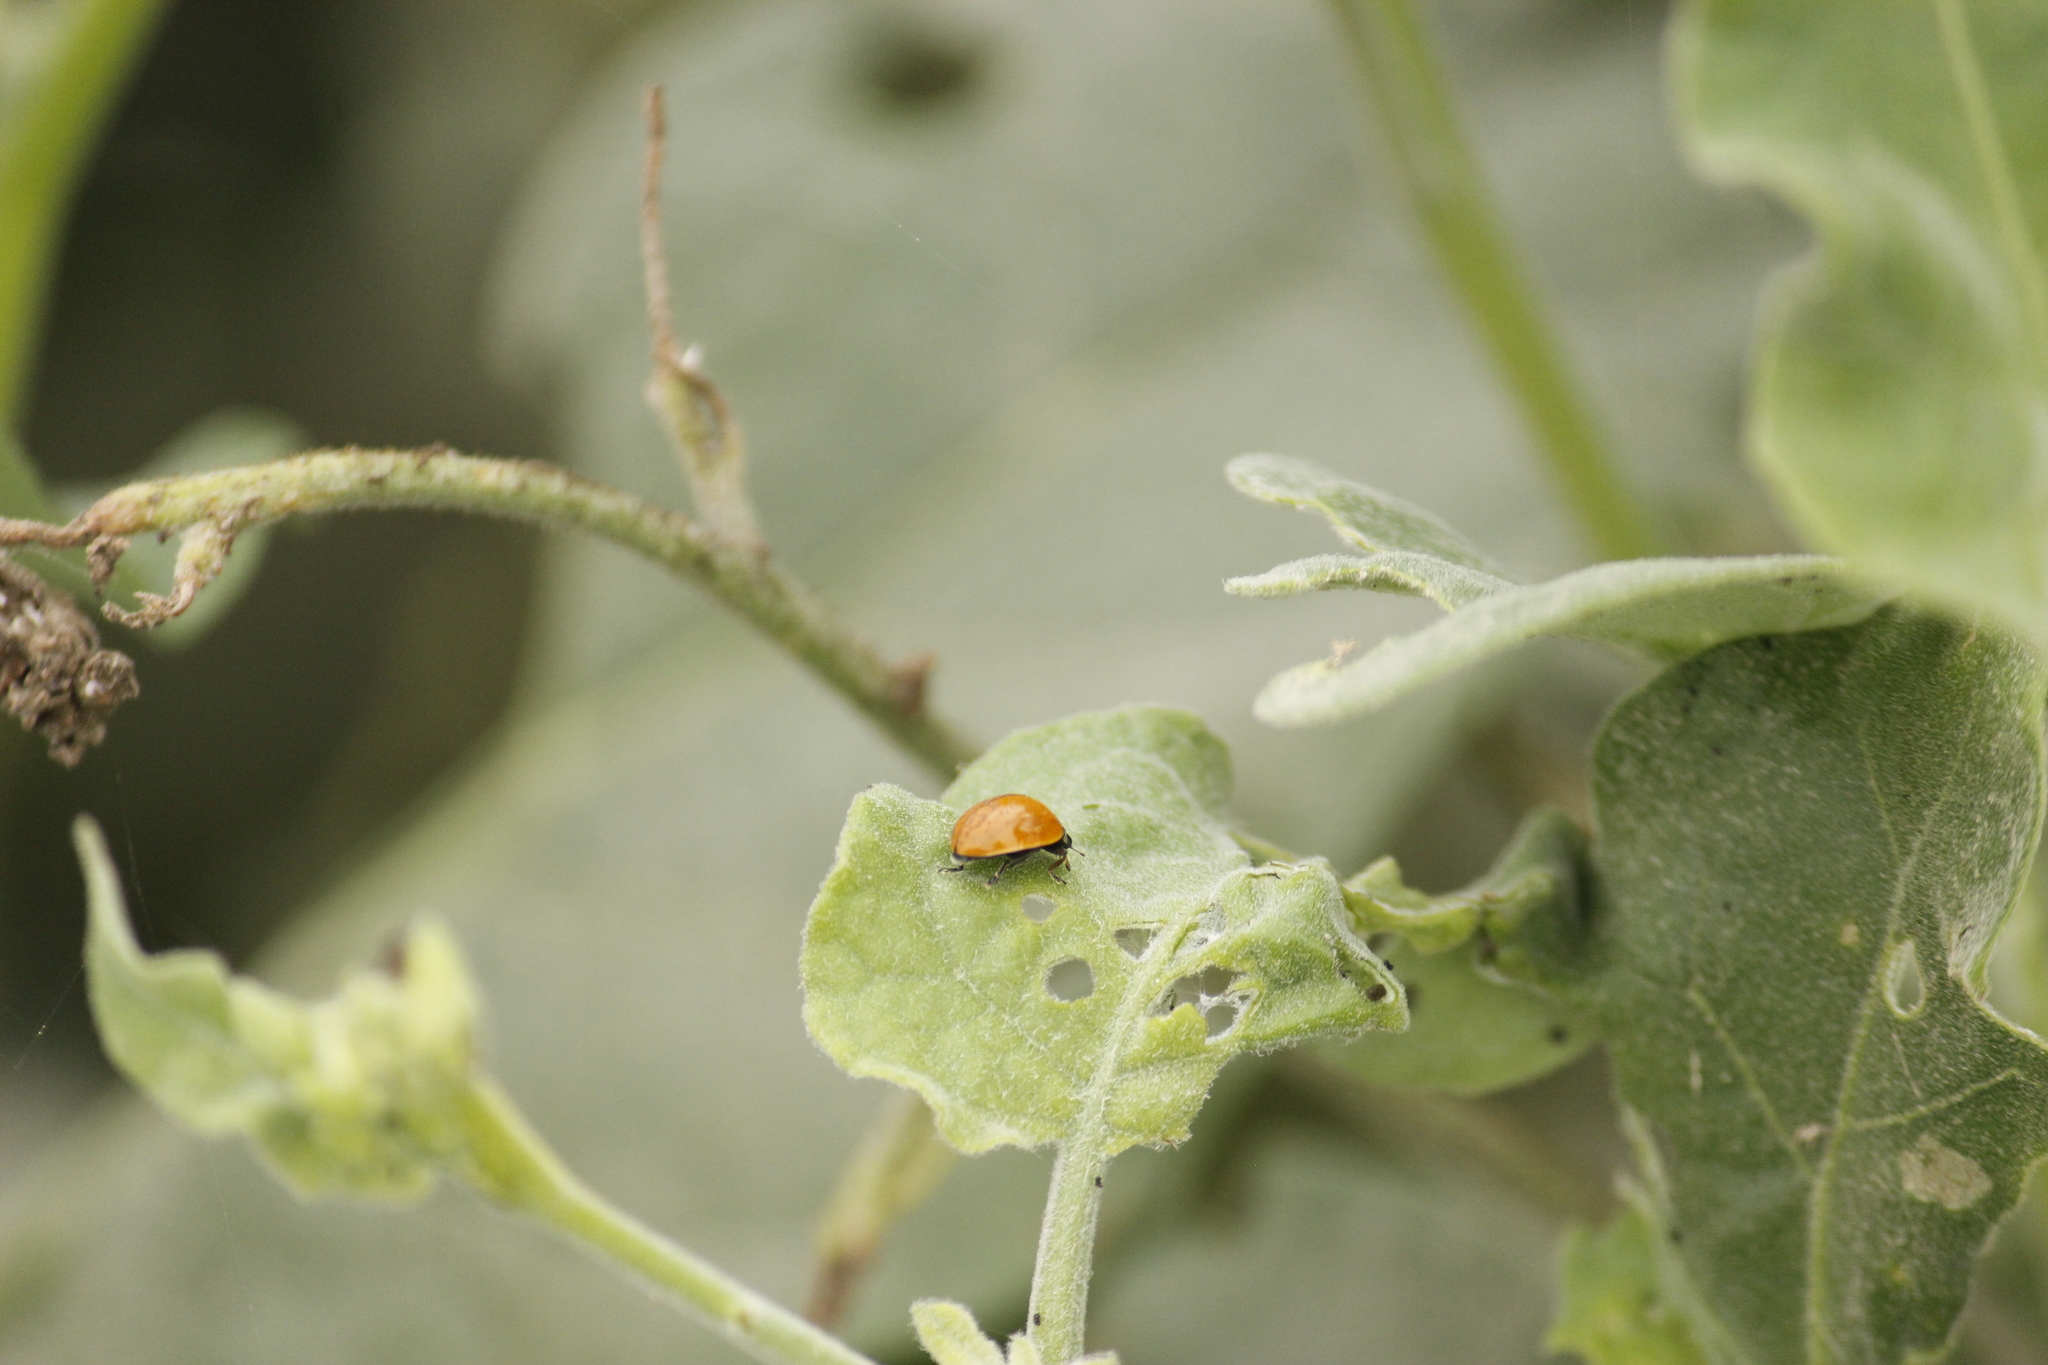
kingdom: Animalia
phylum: Arthropoda
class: Insecta
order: Coleoptera
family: Coccinellidae
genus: Cycloneda
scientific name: Cycloneda sanguinea
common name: Ladybird beetle
